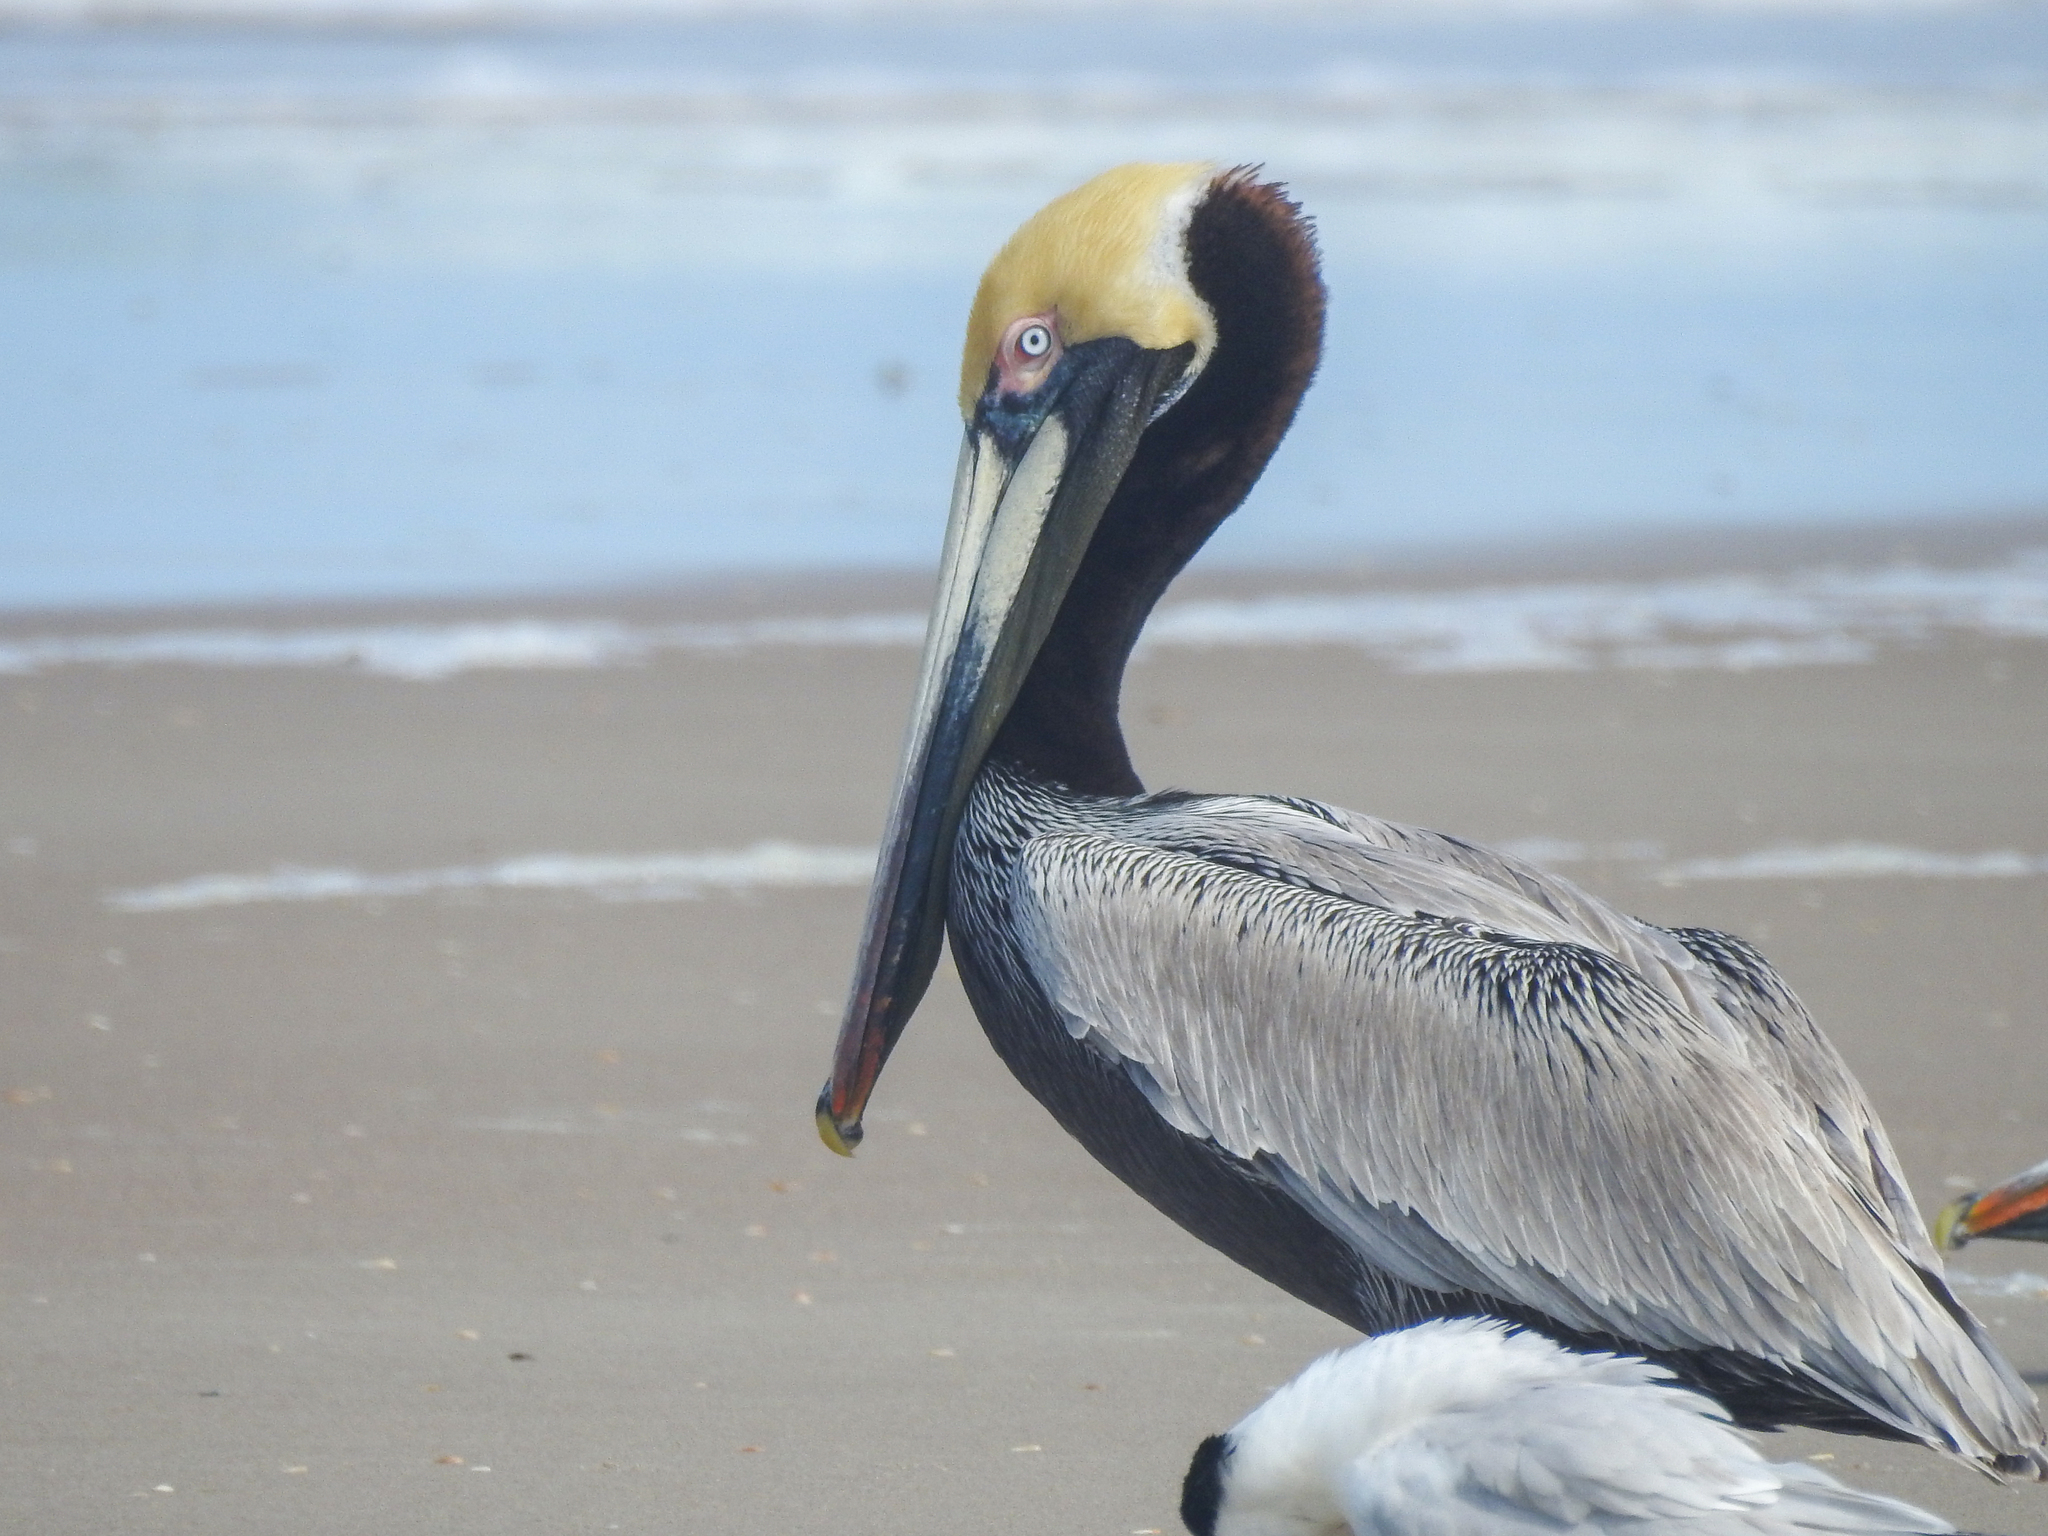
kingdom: Animalia
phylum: Chordata
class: Aves
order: Pelecaniformes
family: Pelecanidae
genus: Pelecanus
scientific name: Pelecanus occidentalis
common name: Brown pelican
